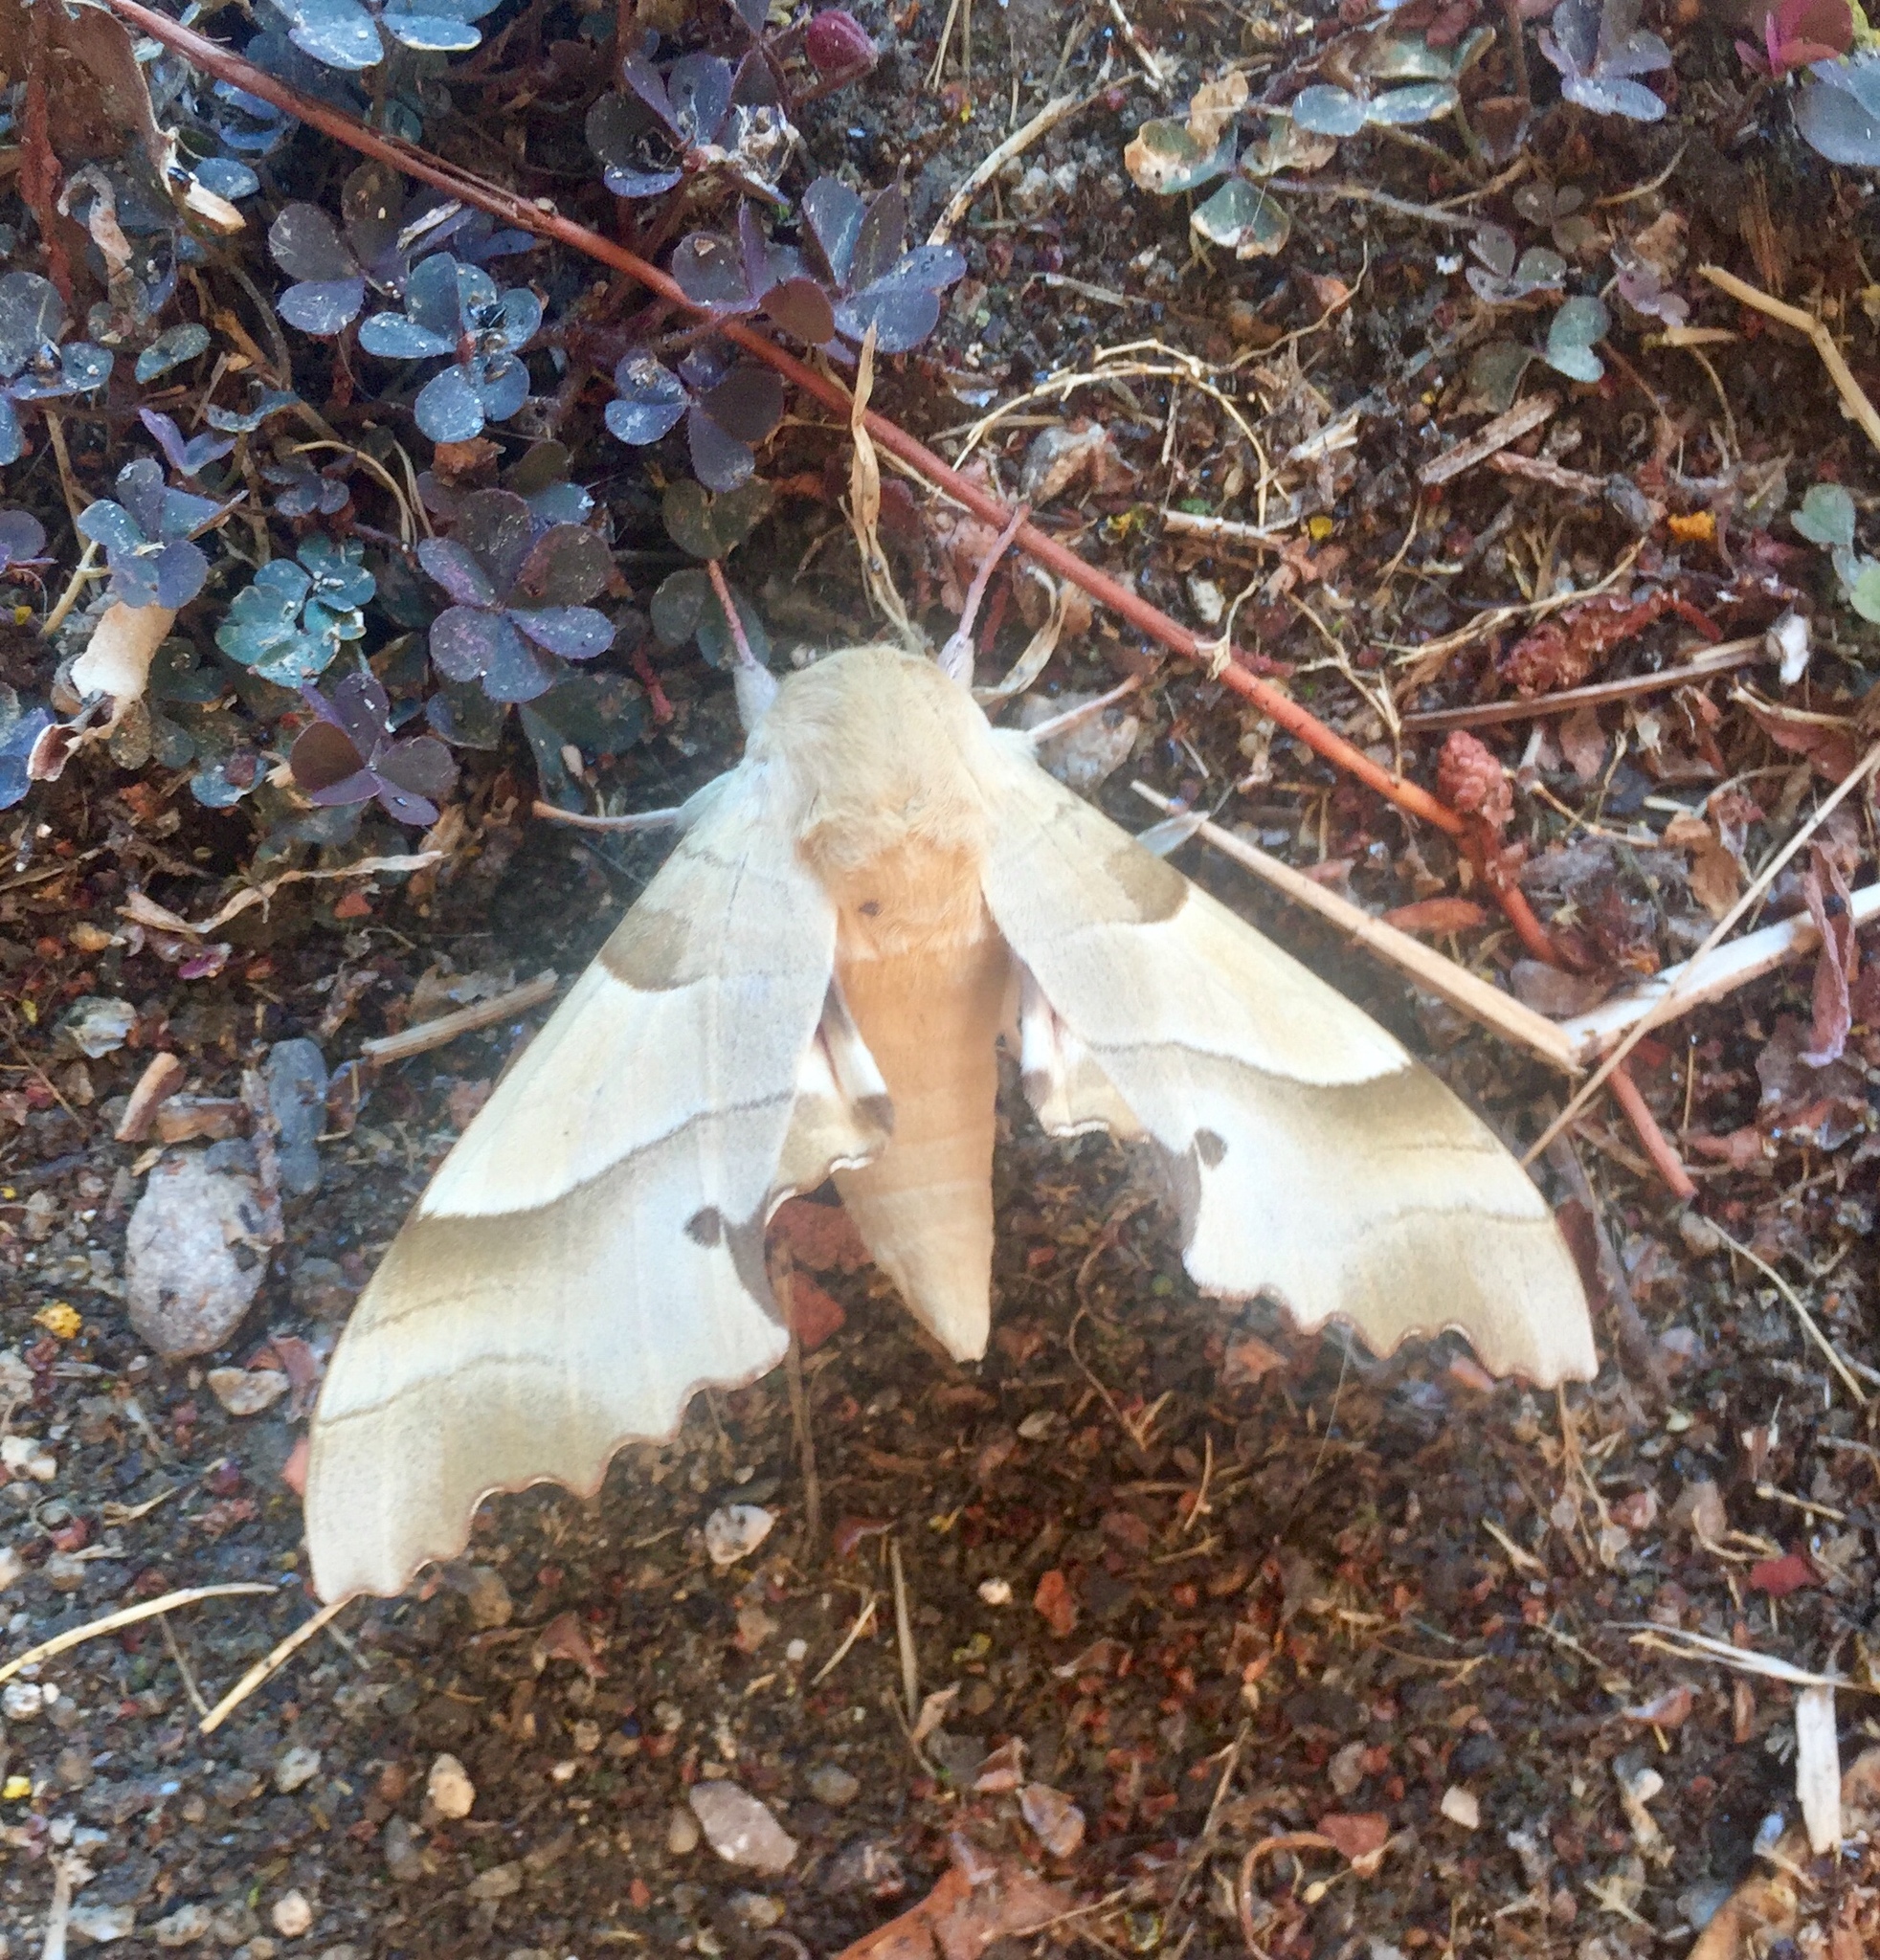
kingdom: Animalia
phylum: Arthropoda
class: Insecta
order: Lepidoptera
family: Sphingidae
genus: Marumba
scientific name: Marumba quercus
